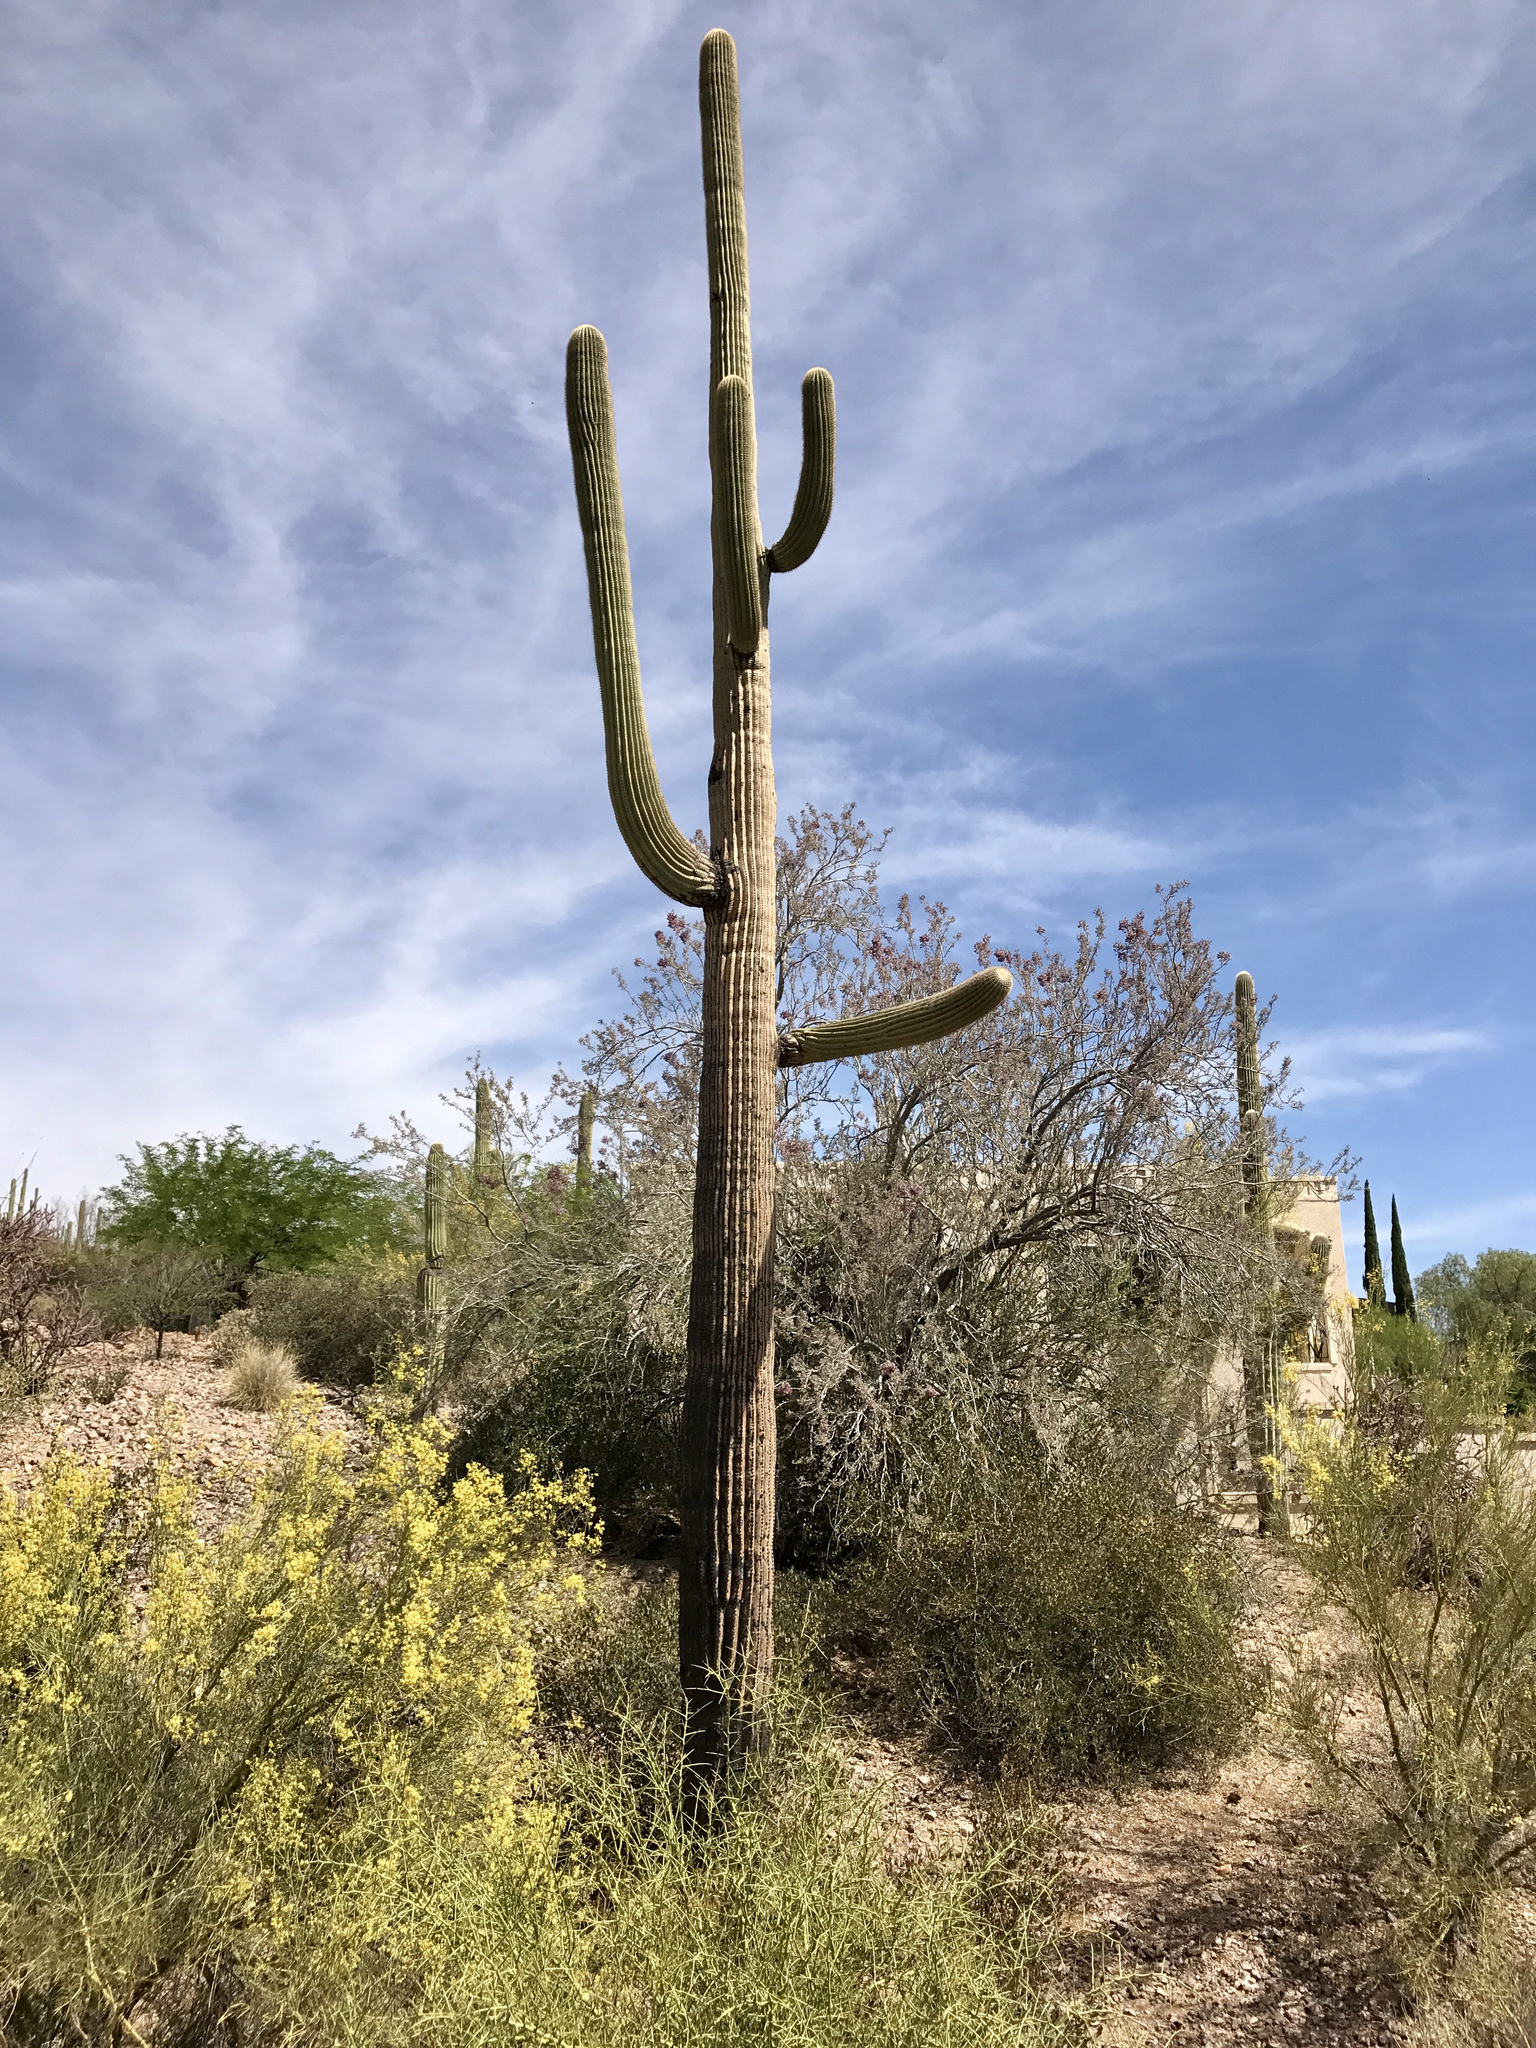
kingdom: Plantae
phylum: Tracheophyta
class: Magnoliopsida
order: Caryophyllales
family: Cactaceae
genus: Carnegiea
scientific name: Carnegiea gigantea
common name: Saguaro
